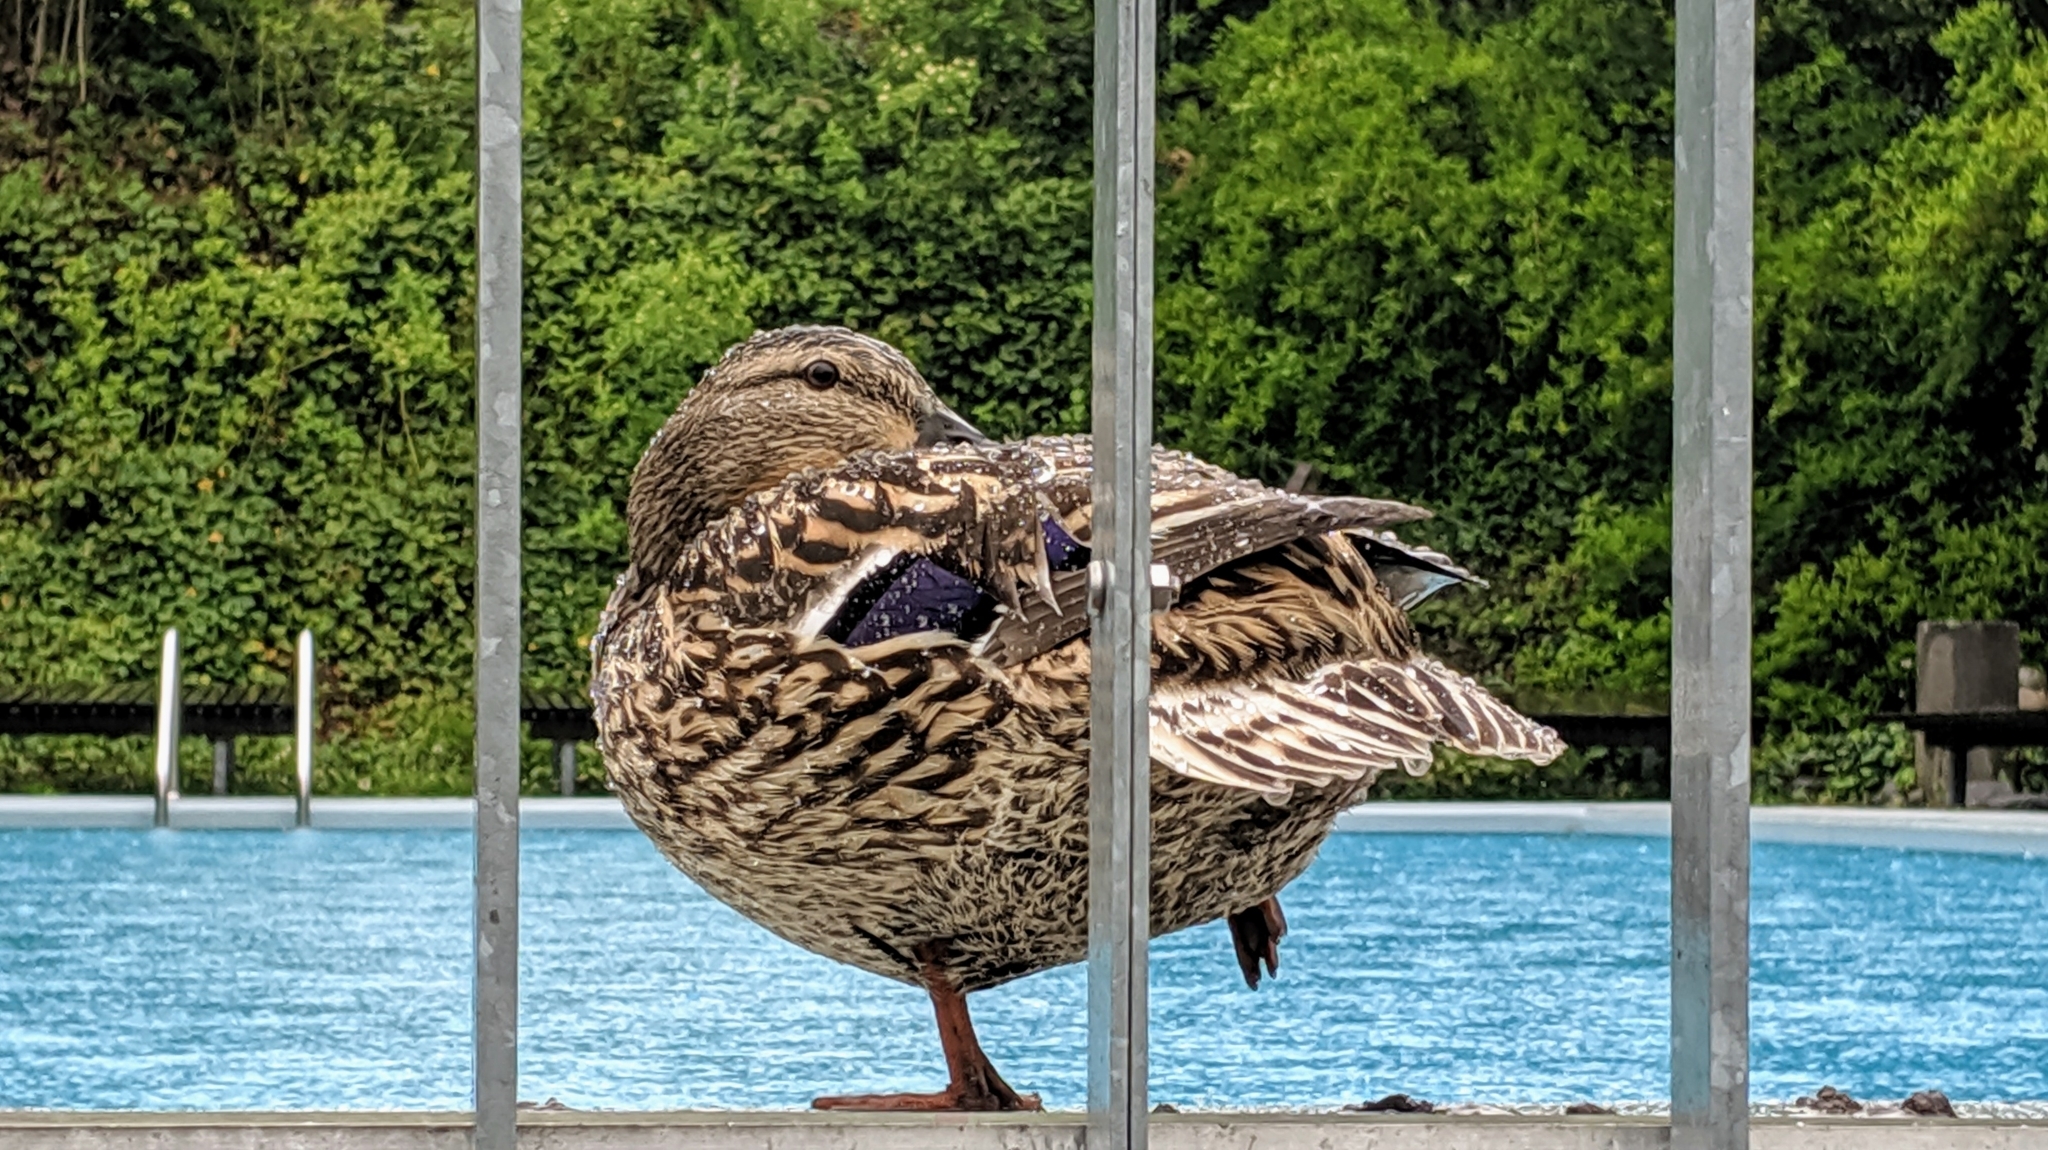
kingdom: Animalia
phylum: Chordata
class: Aves
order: Anseriformes
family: Anatidae
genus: Anas
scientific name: Anas platyrhynchos
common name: Mallard
